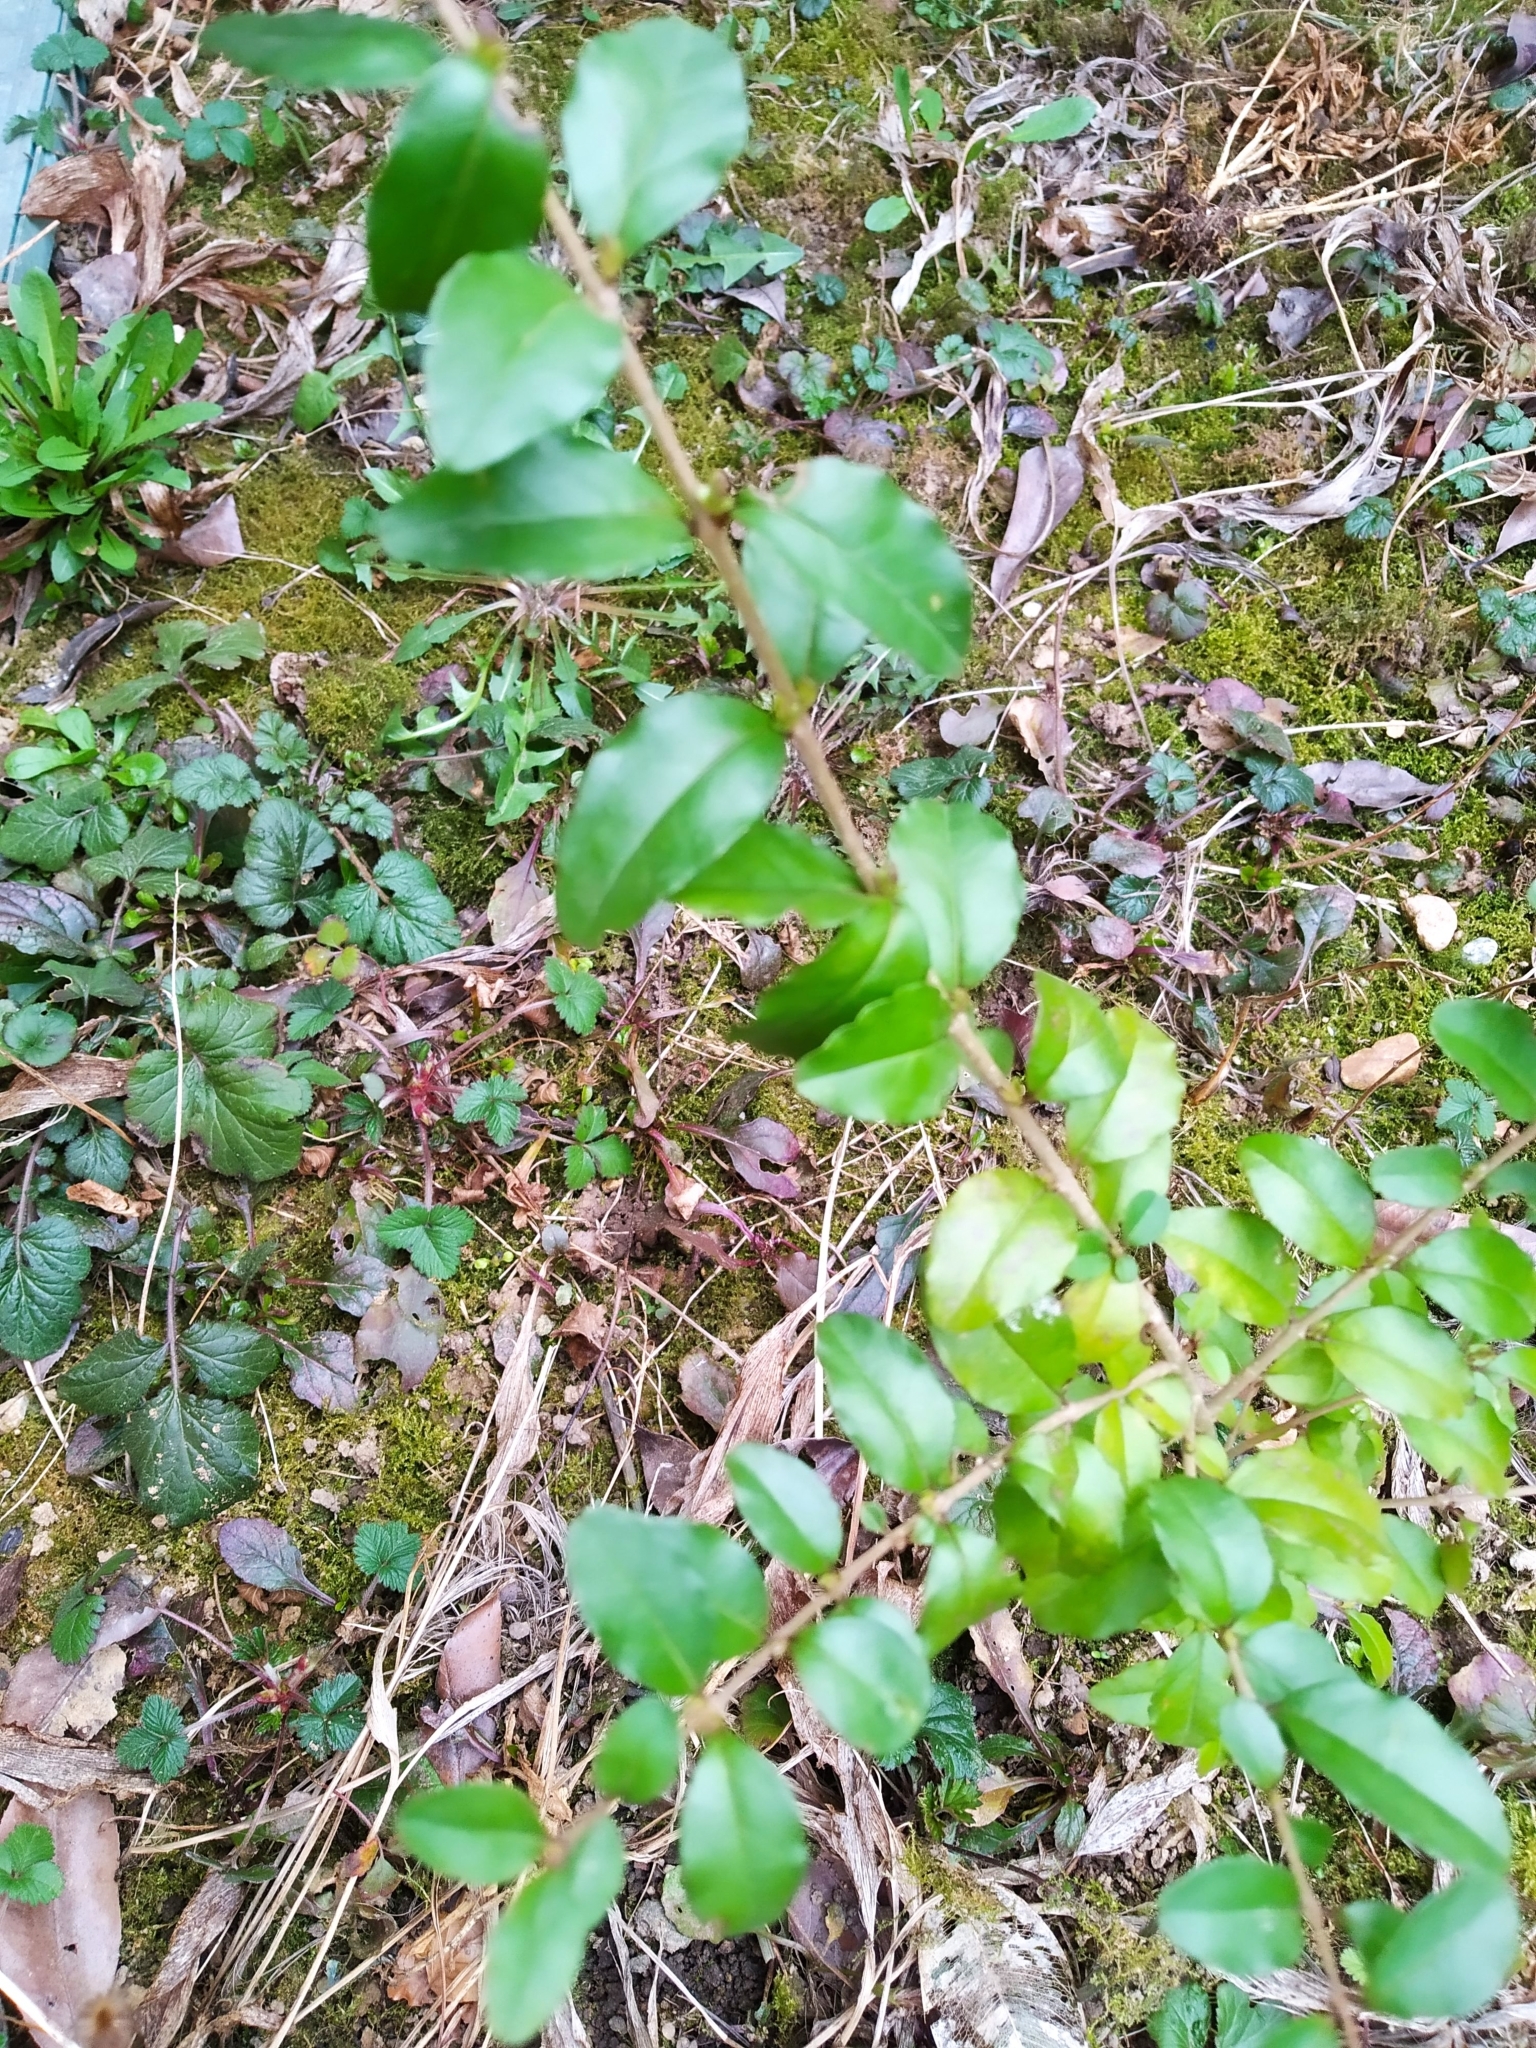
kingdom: Plantae
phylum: Tracheophyta
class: Magnoliopsida
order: Lamiales
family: Oleaceae
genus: Ligustrum
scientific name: Ligustrum sinense
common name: Chinese privet
